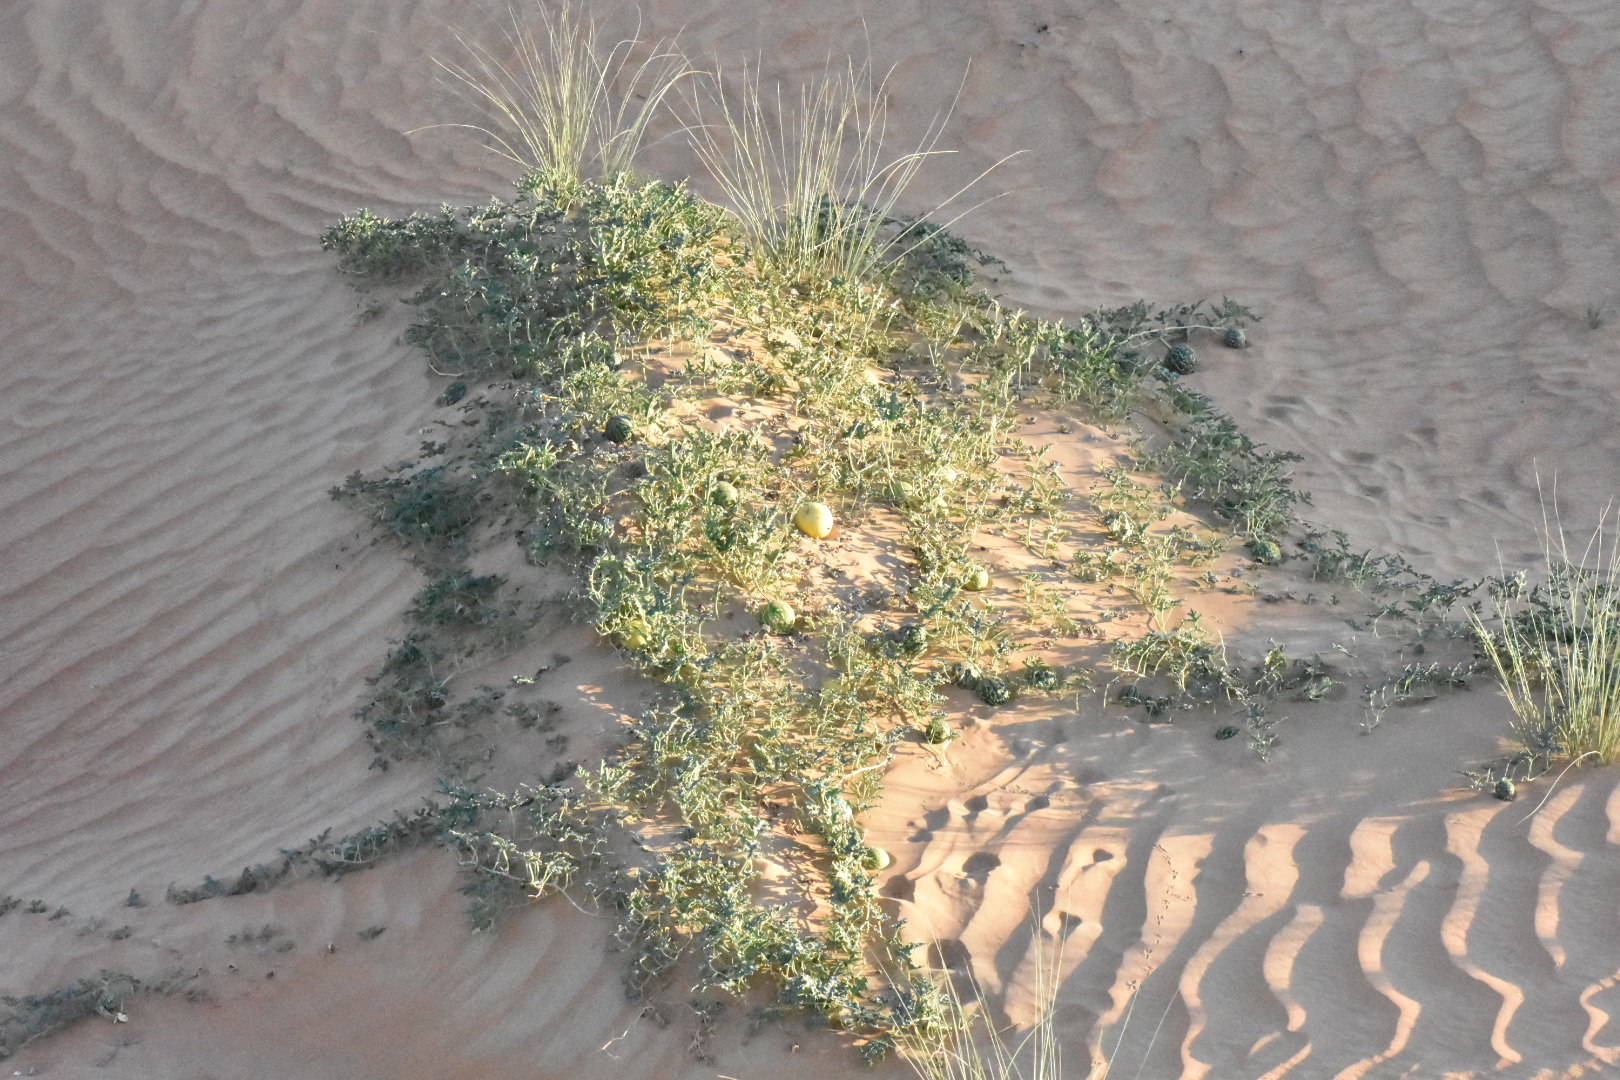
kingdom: Plantae
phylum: Tracheophyta
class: Magnoliopsida
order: Cucurbitales
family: Cucurbitaceae
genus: Citrullus
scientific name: Citrullus colocynthis
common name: Colocynth
